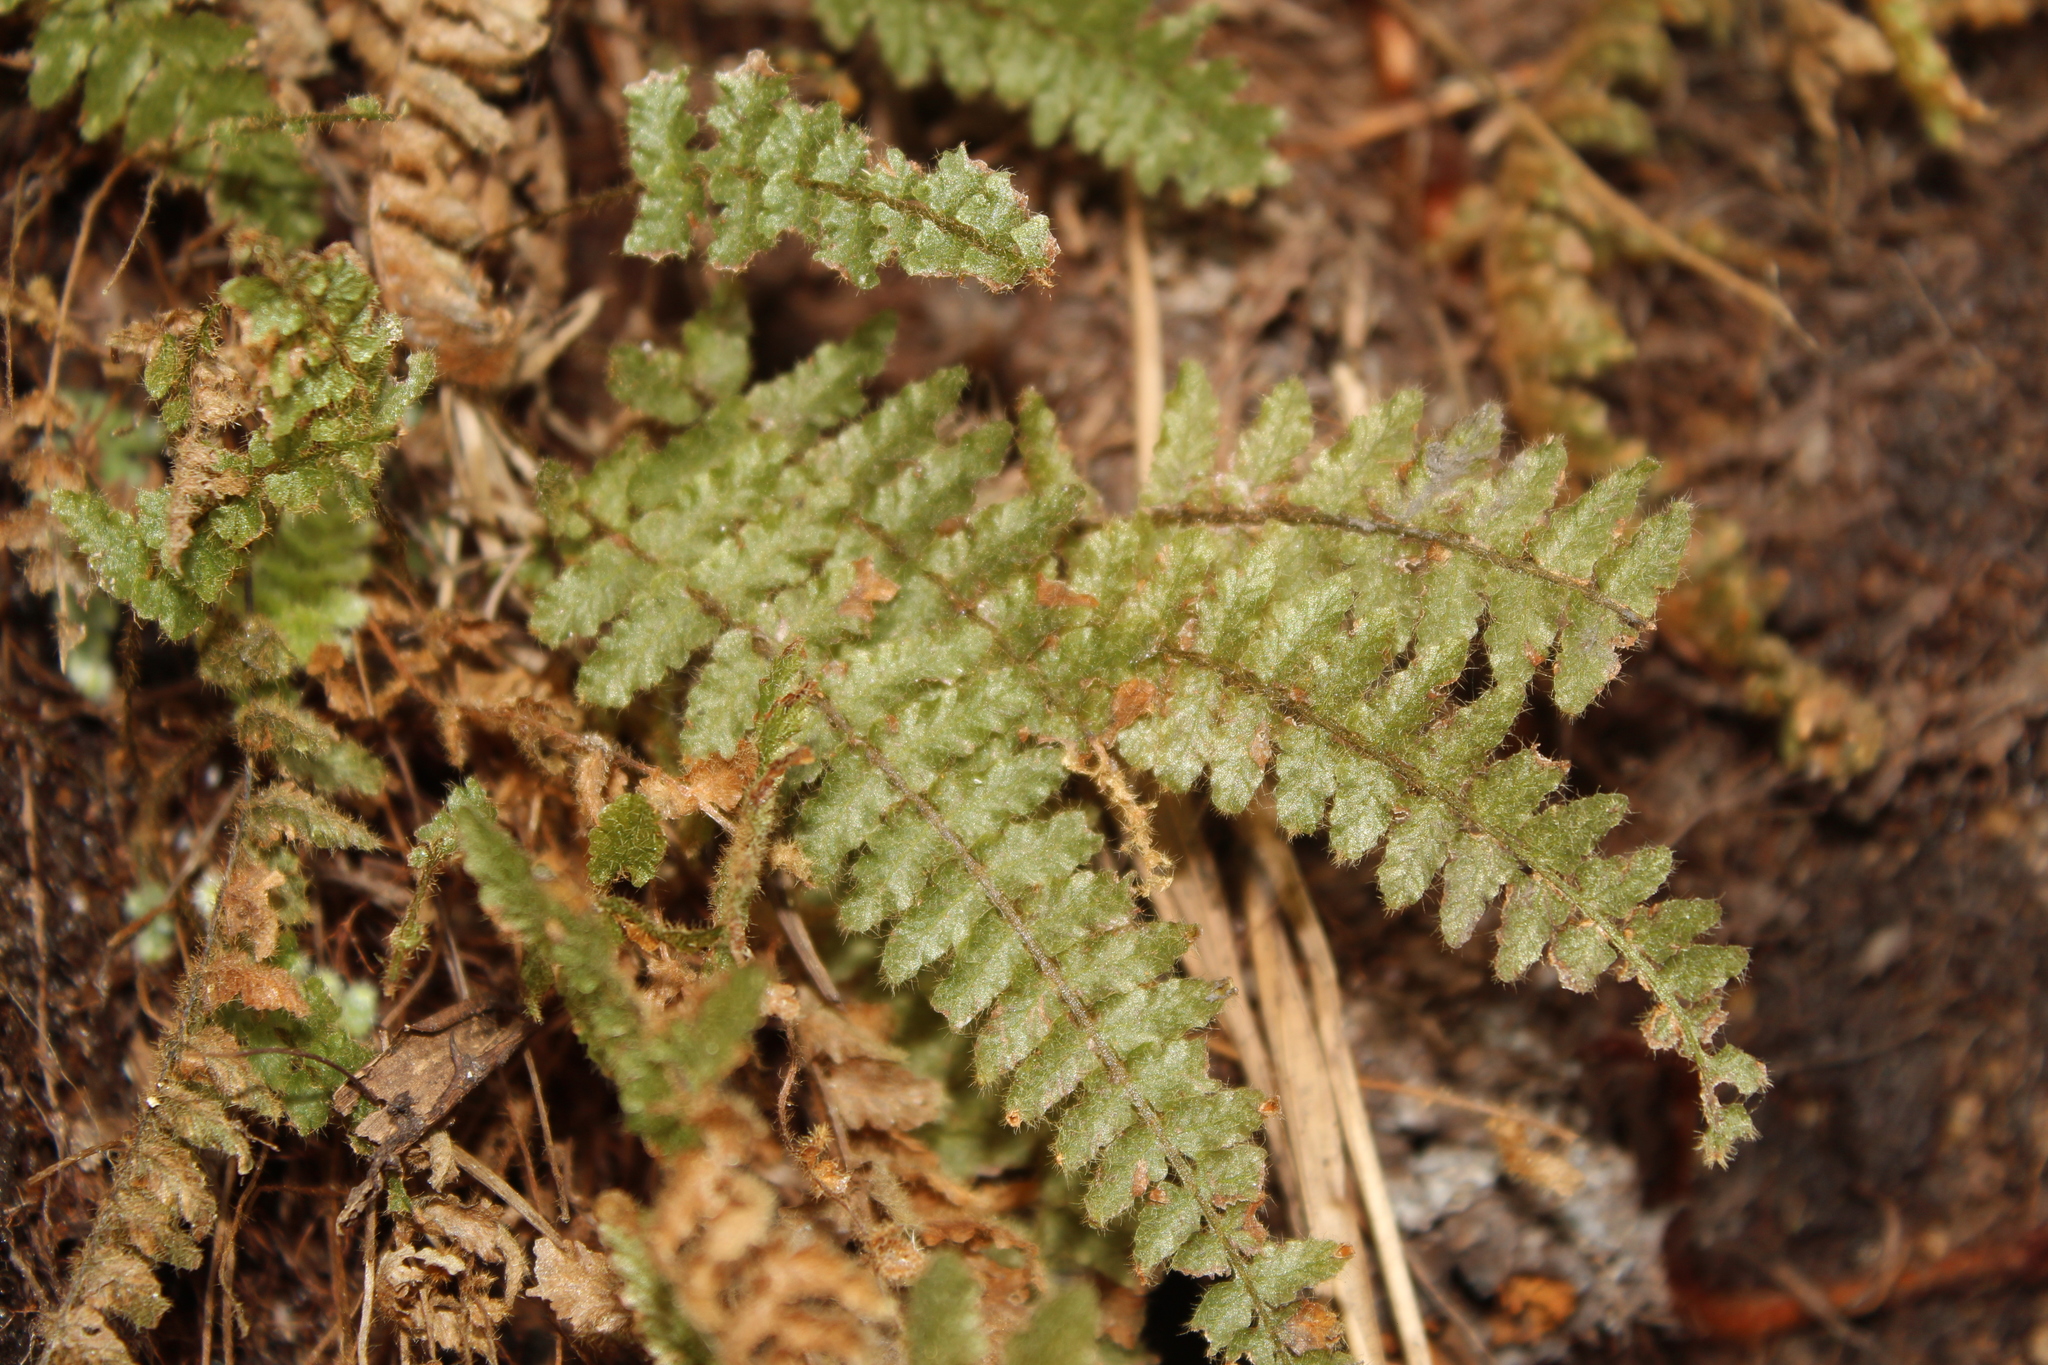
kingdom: Plantae
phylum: Tracheophyta
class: Polypodiopsida
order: Hymenophyllales
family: Hymenophyllaceae
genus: Trichomanes
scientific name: Trichomanes crispum
